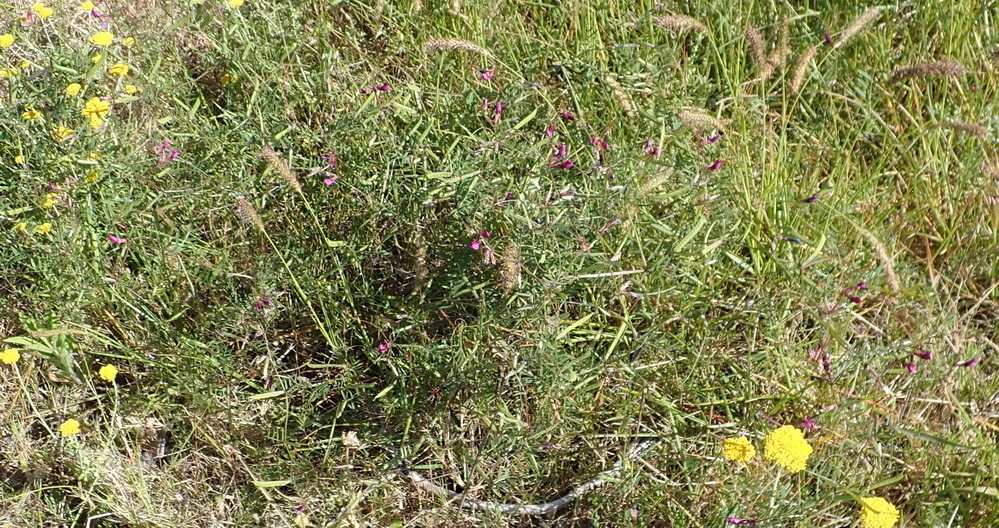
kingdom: Plantae
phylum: Tracheophyta
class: Magnoliopsida
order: Fabales
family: Fabaceae
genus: Vicia
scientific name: Vicia sativa
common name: Garden vetch
